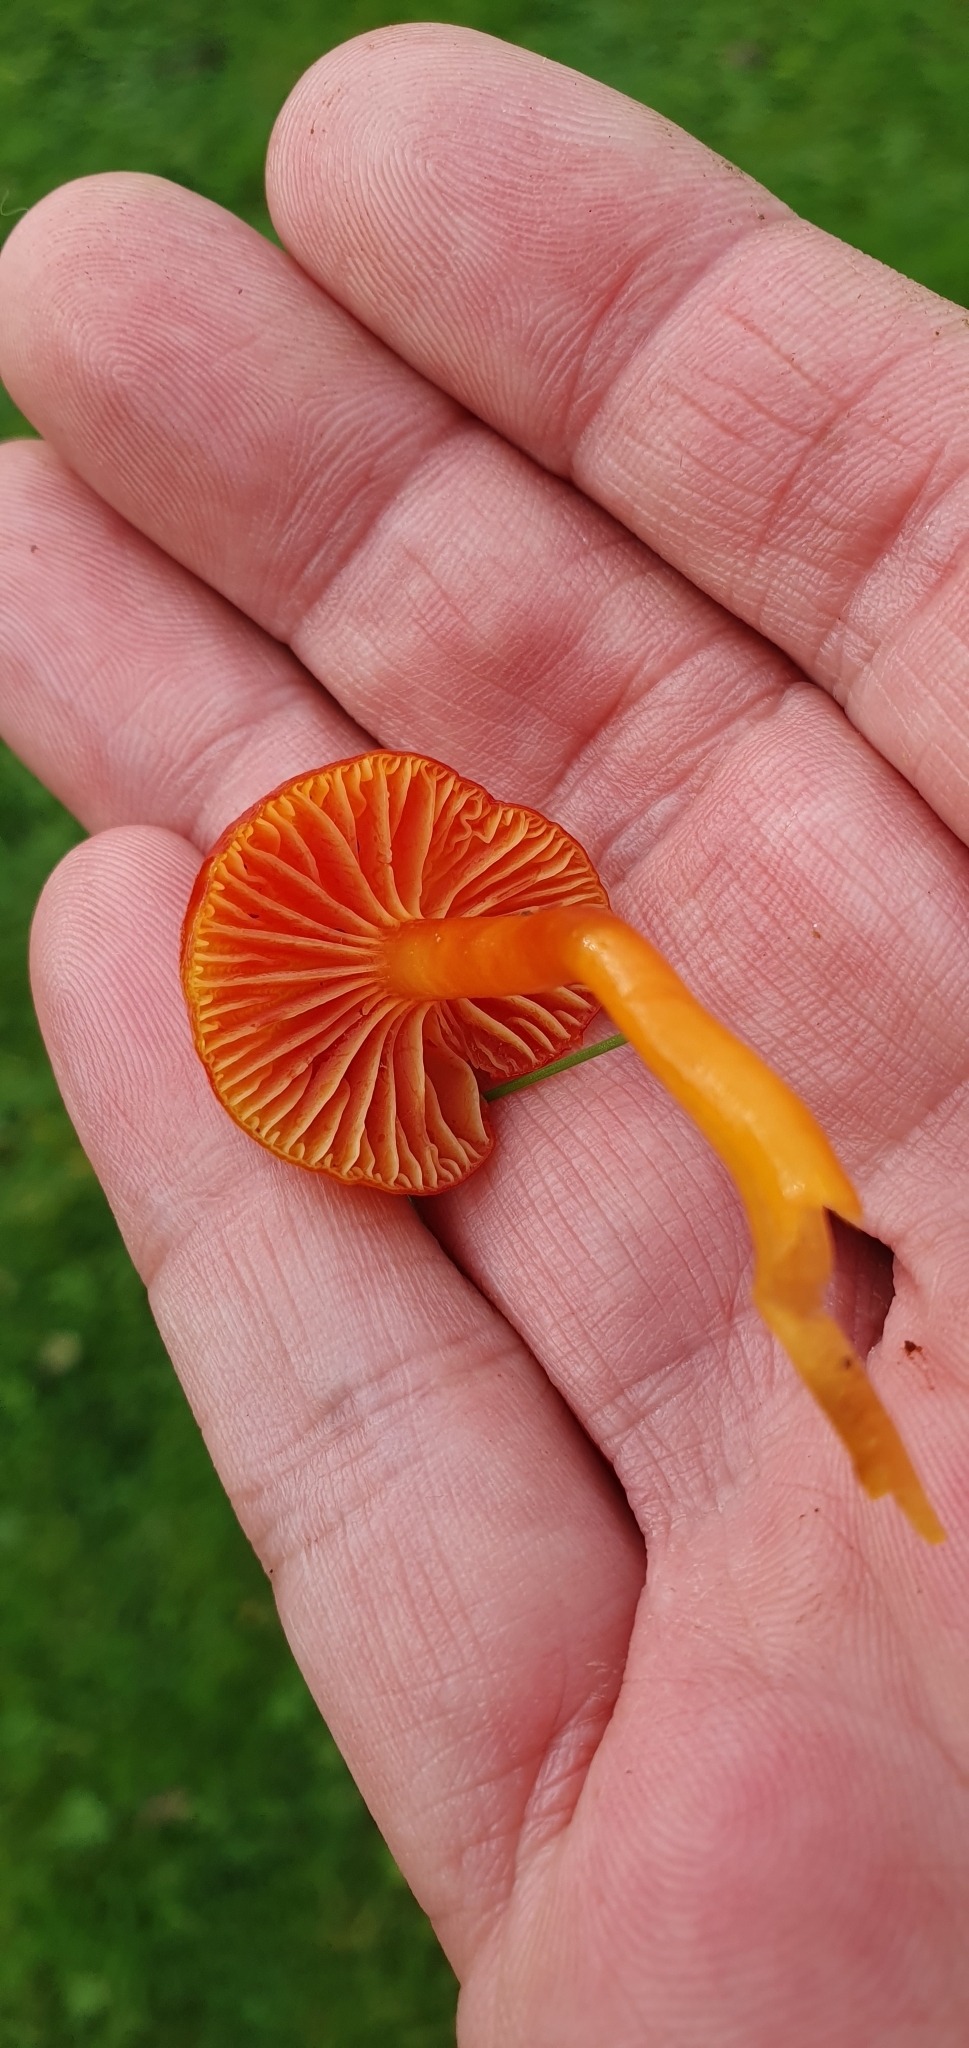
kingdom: Fungi
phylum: Basidiomycota
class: Agaricomycetes
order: Agaricales
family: Hygrophoraceae
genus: Hygrocybe
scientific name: Hygrocybe insipida
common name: Spangle waxcap
